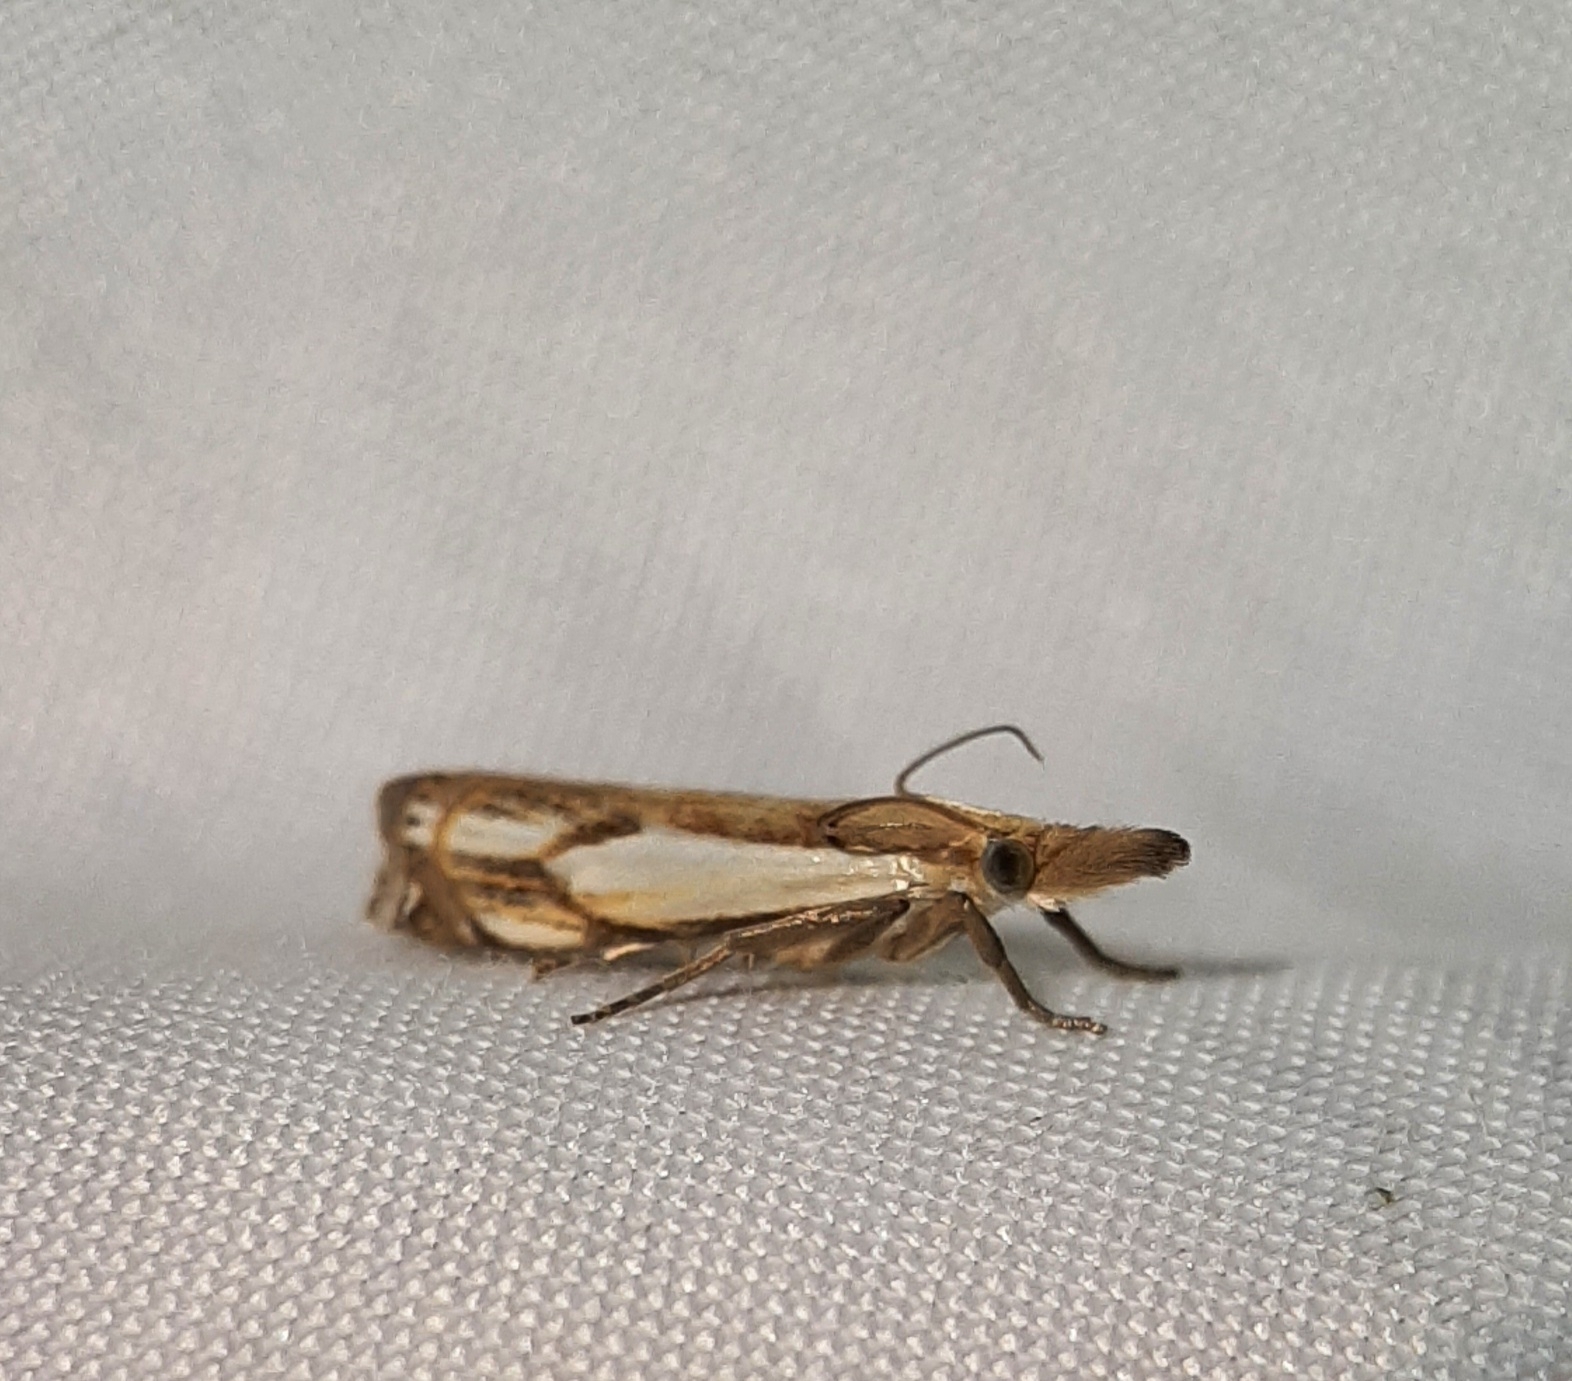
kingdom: Animalia
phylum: Arthropoda
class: Insecta
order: Lepidoptera
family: Crambidae
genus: Crambus
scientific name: Crambus agitatellus
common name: Double-banded grass-veneer
